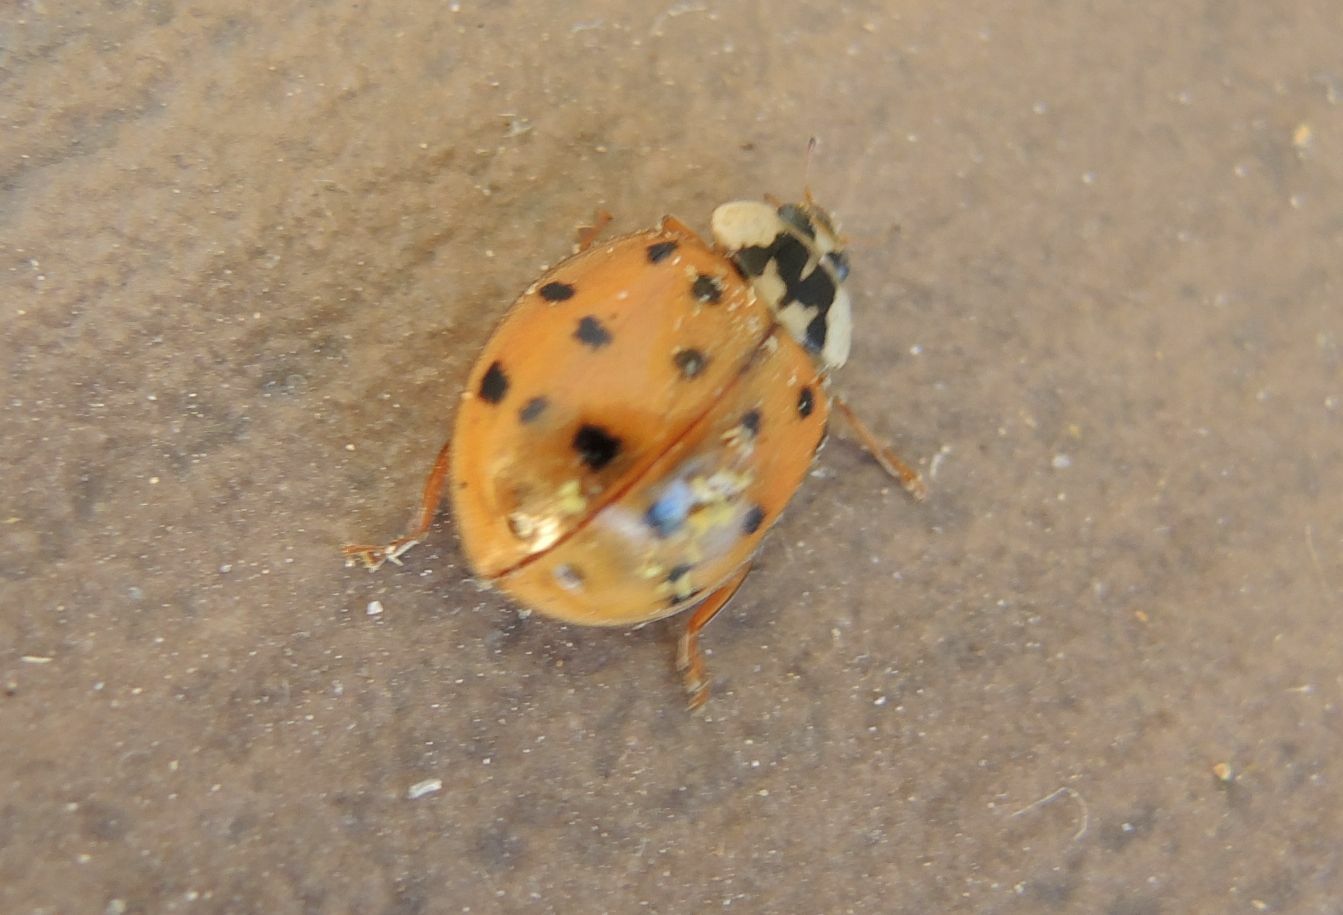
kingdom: Animalia
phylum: Arthropoda
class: Insecta
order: Coleoptera
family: Coccinellidae
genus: Harmonia
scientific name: Harmonia axyridis
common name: Harlequin ladybird
